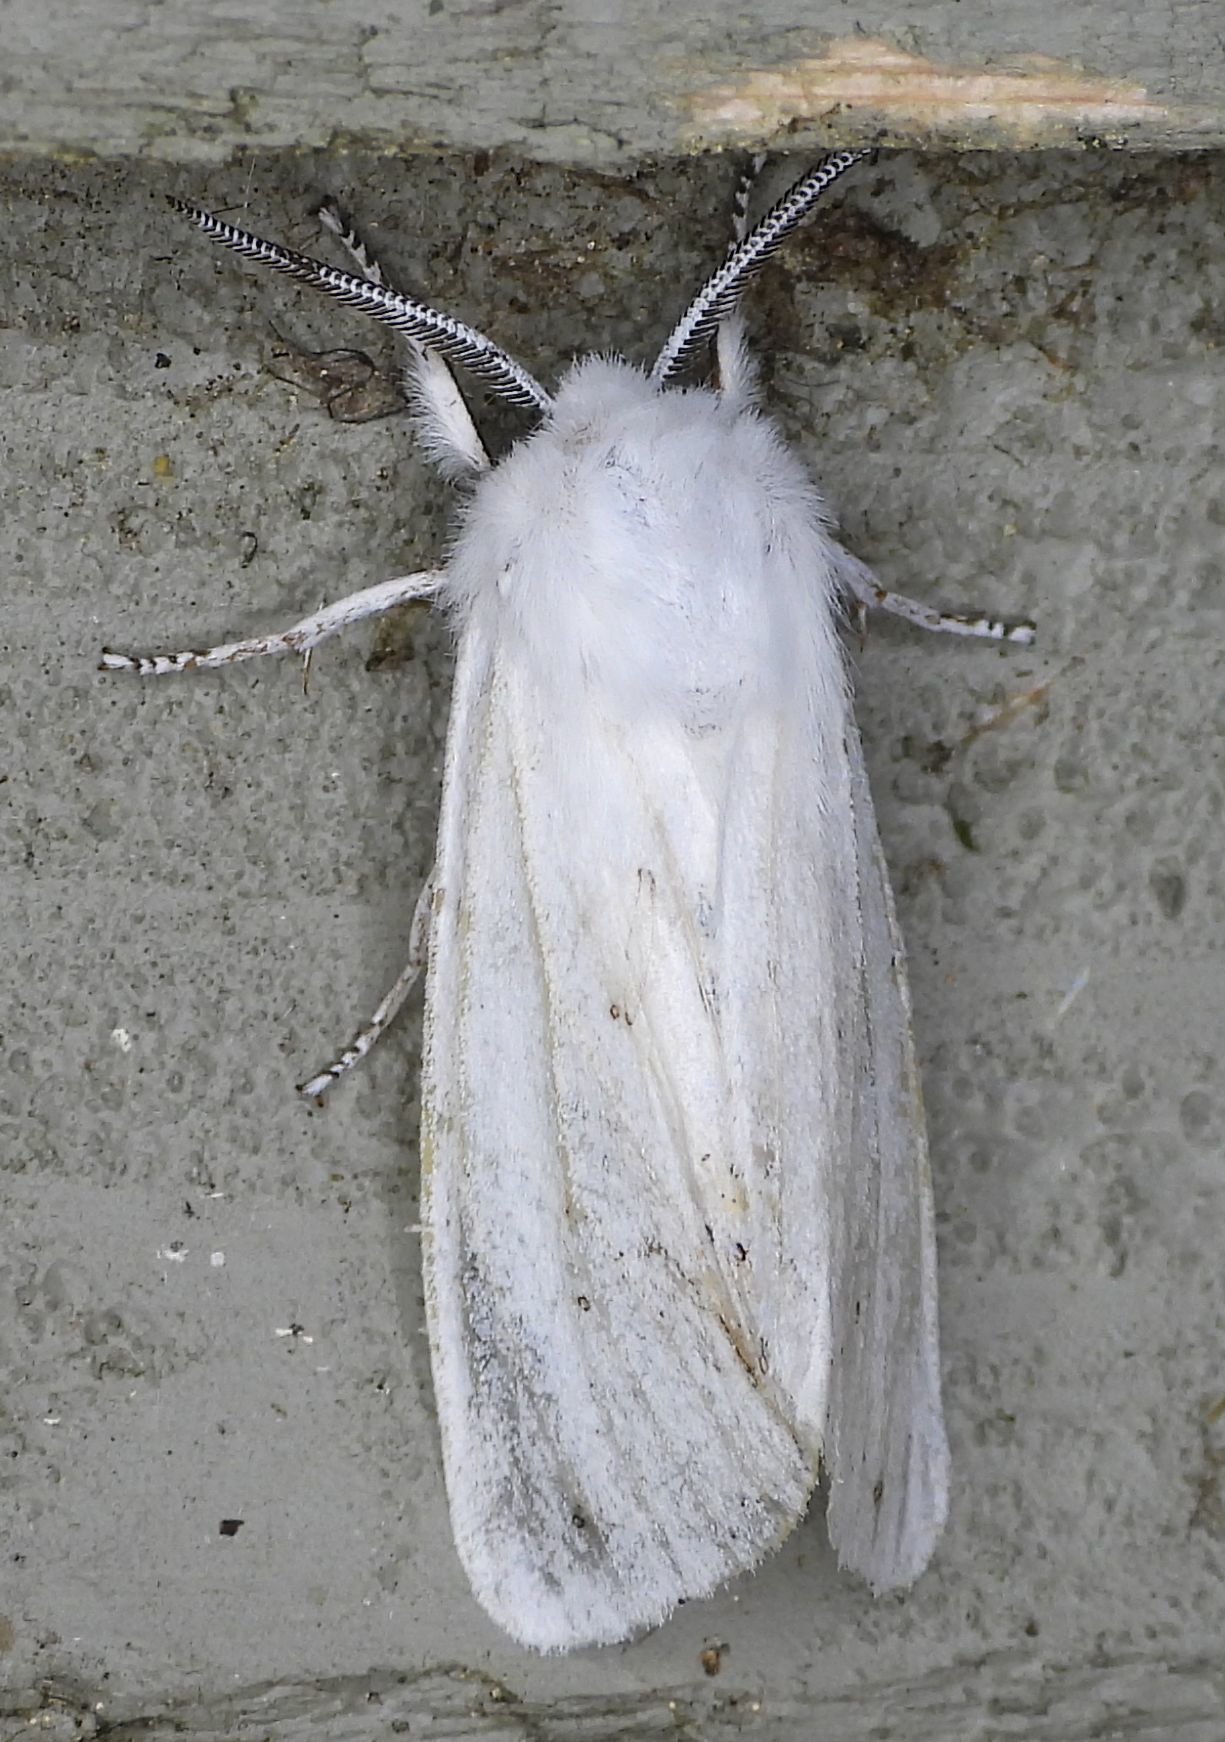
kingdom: Animalia
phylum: Arthropoda
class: Insecta
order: Lepidoptera
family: Erebidae
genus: Spilosoma
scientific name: Spilosoma virginica
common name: Virginia tiger moth
